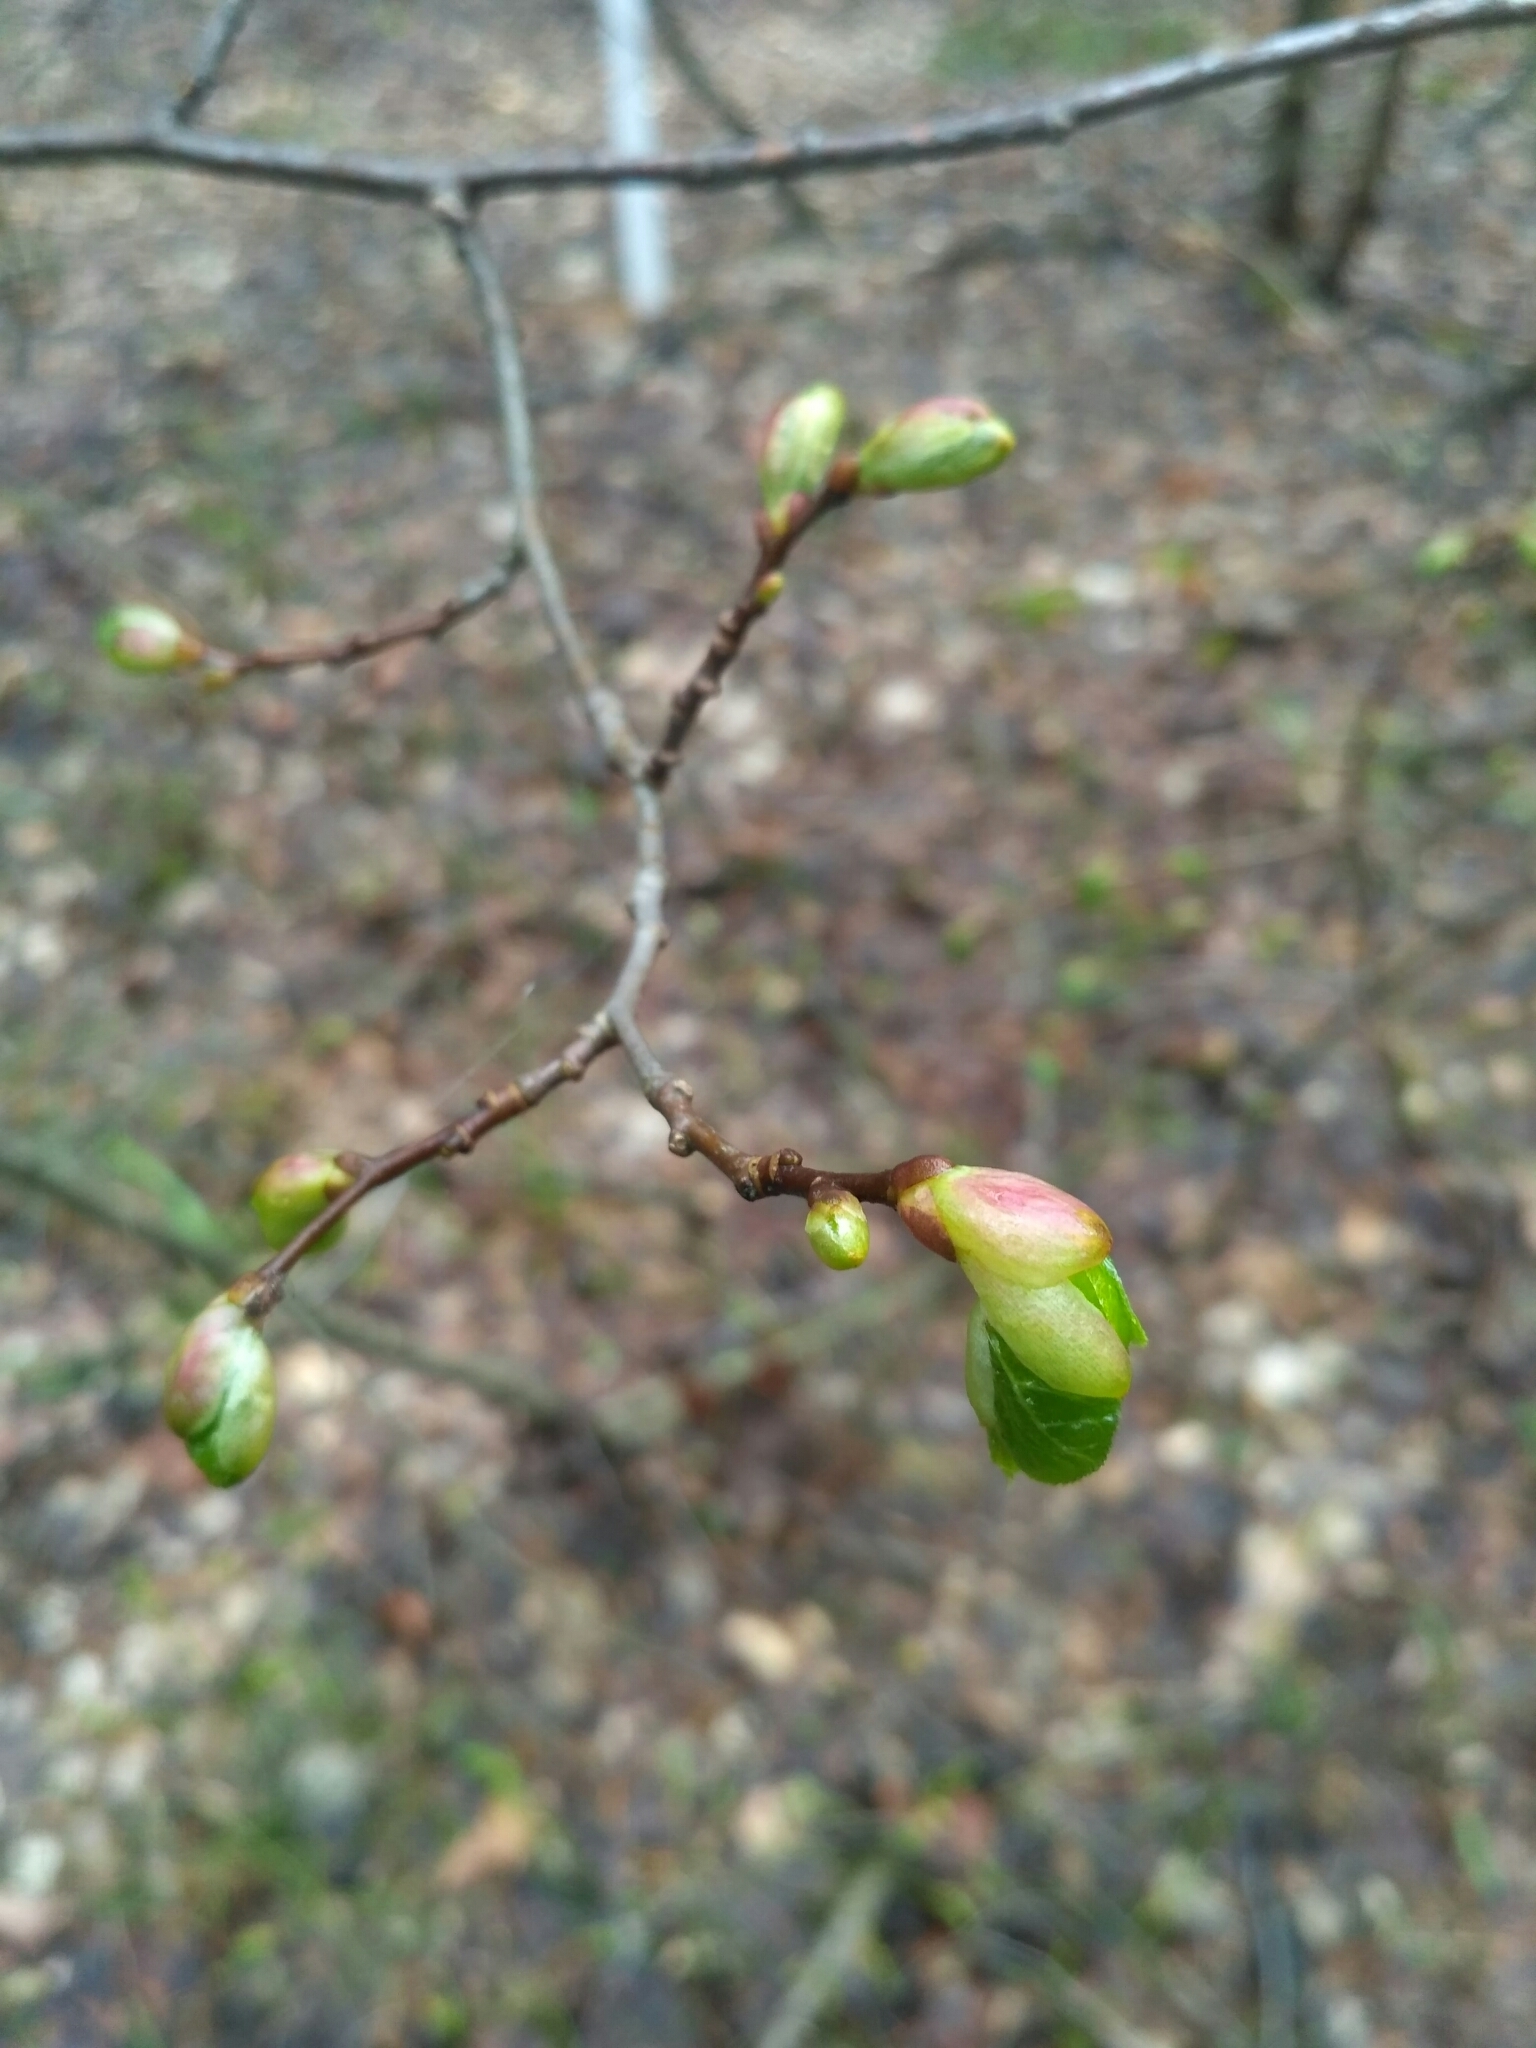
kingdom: Plantae
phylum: Tracheophyta
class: Magnoliopsida
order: Malvales
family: Malvaceae
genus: Tilia
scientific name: Tilia cordata
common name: Small-leaved lime
